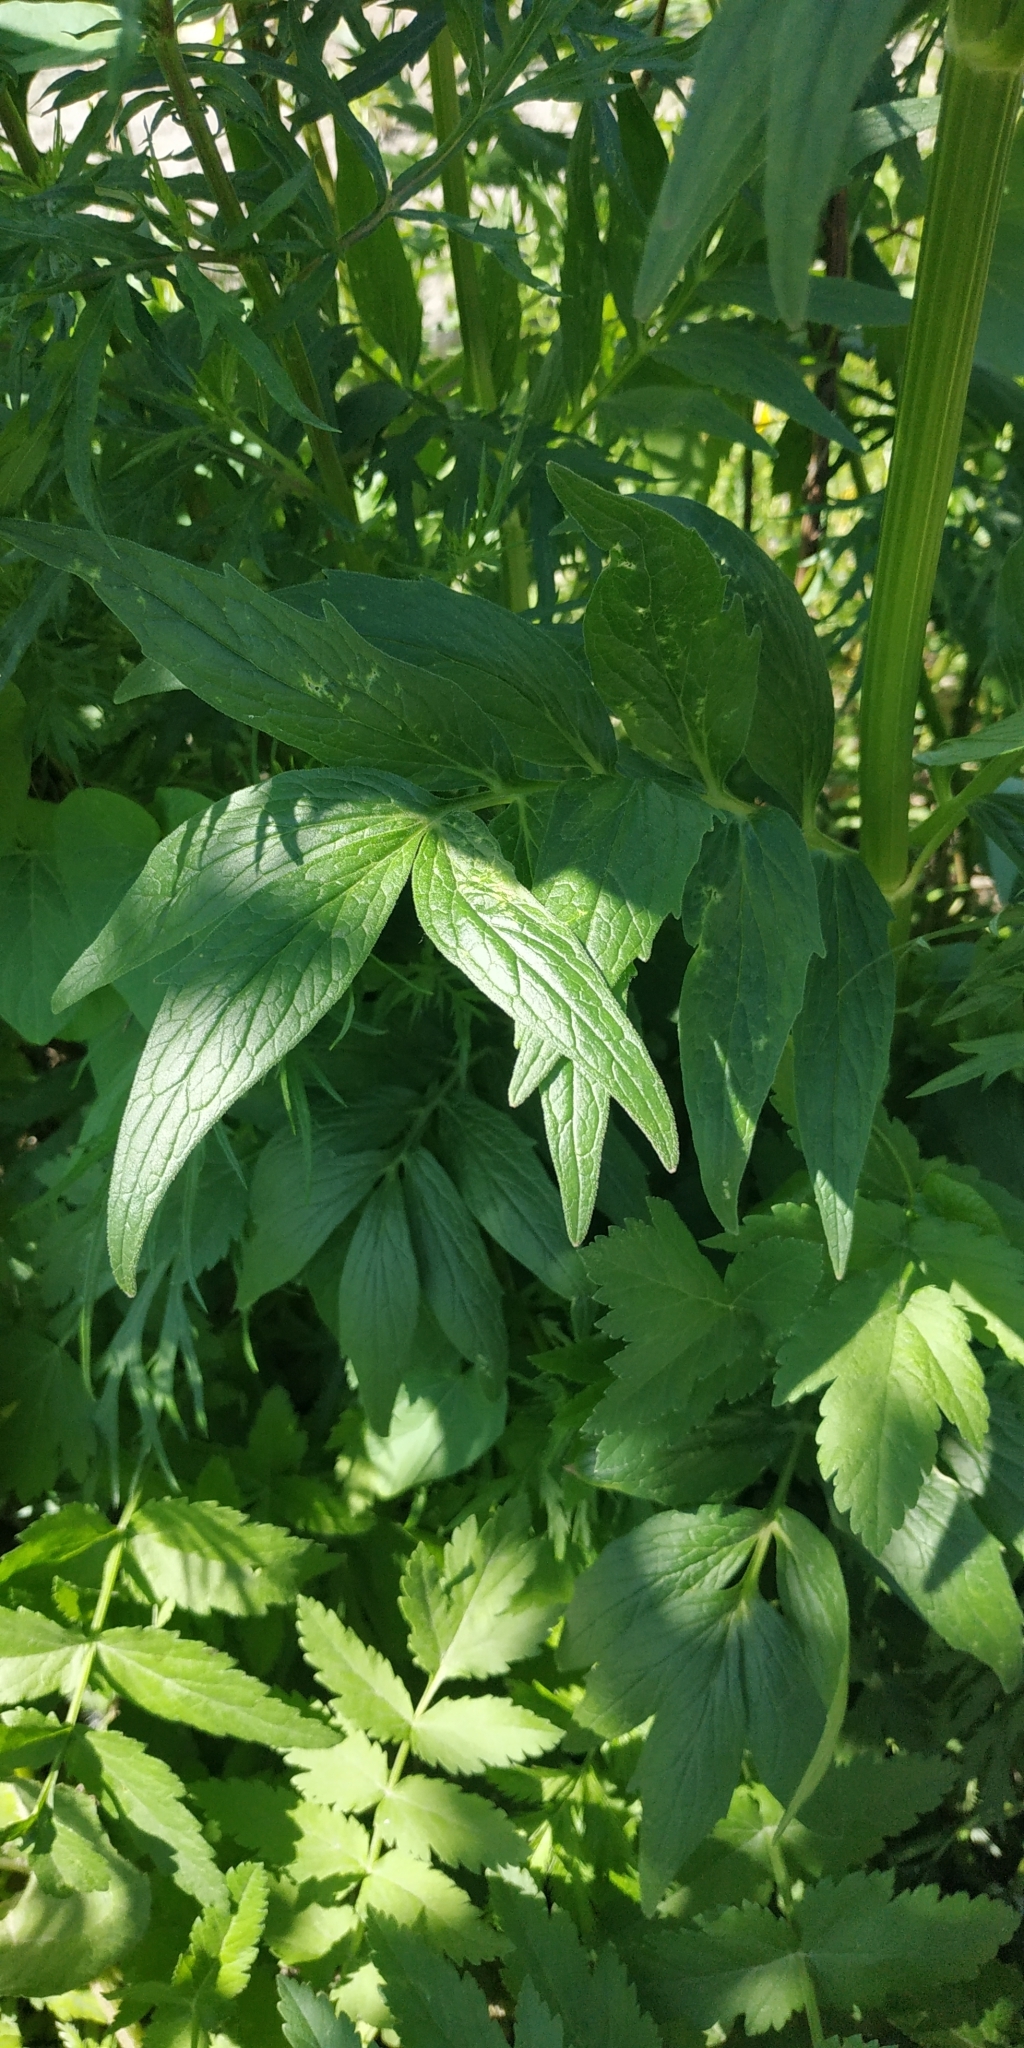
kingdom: Plantae
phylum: Tracheophyta
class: Magnoliopsida
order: Dipsacales
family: Caprifoliaceae
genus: Valeriana
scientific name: Valeriana wolgensis
